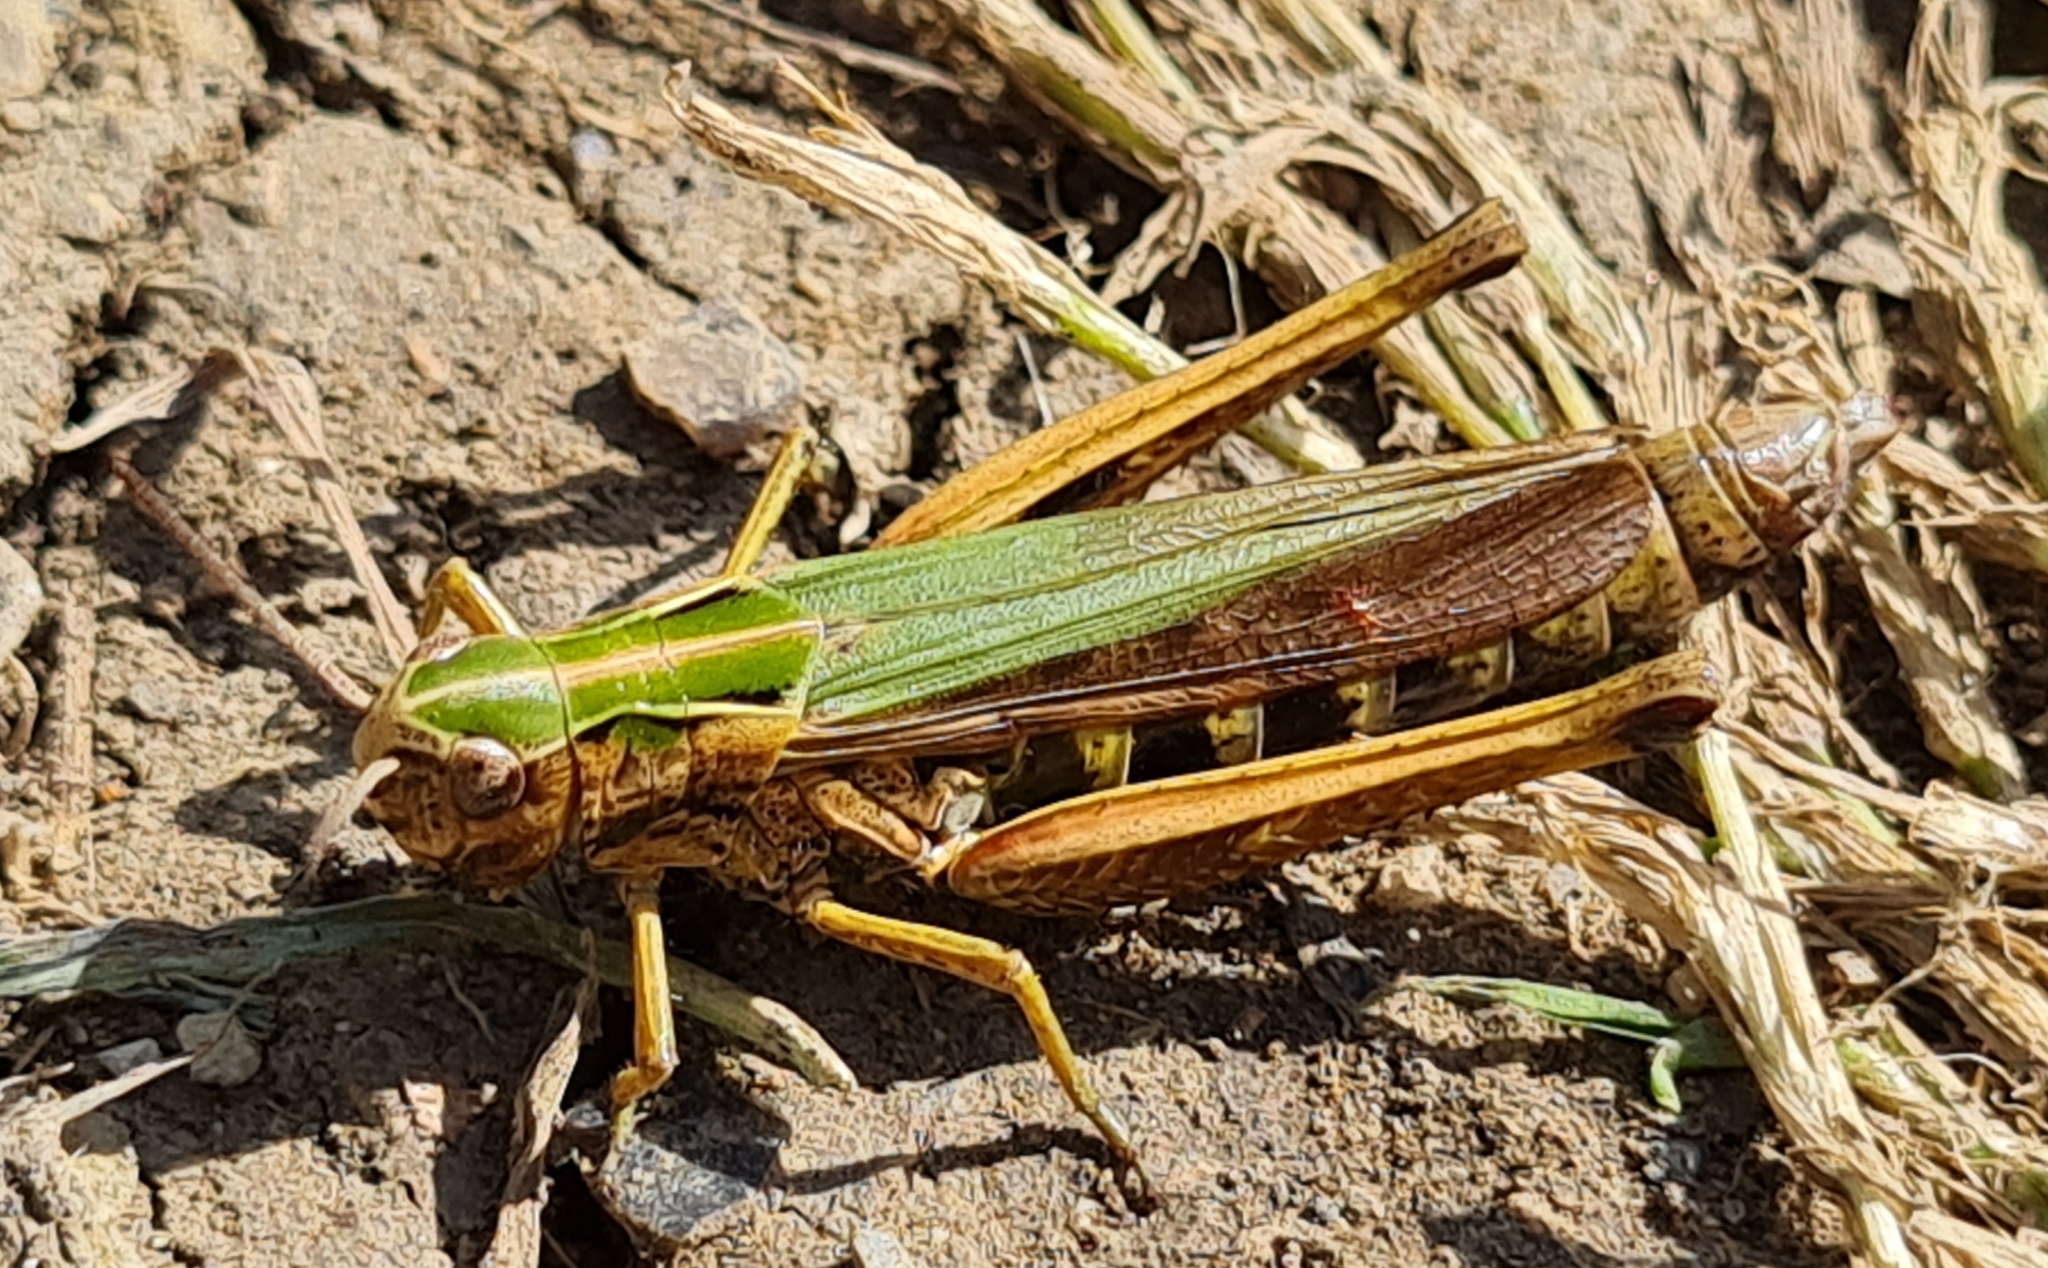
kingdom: Animalia
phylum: Arthropoda
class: Insecta
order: Orthoptera
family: Acrididae
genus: Omocestus
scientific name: Omocestus viridulus
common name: Common green grasshopper
